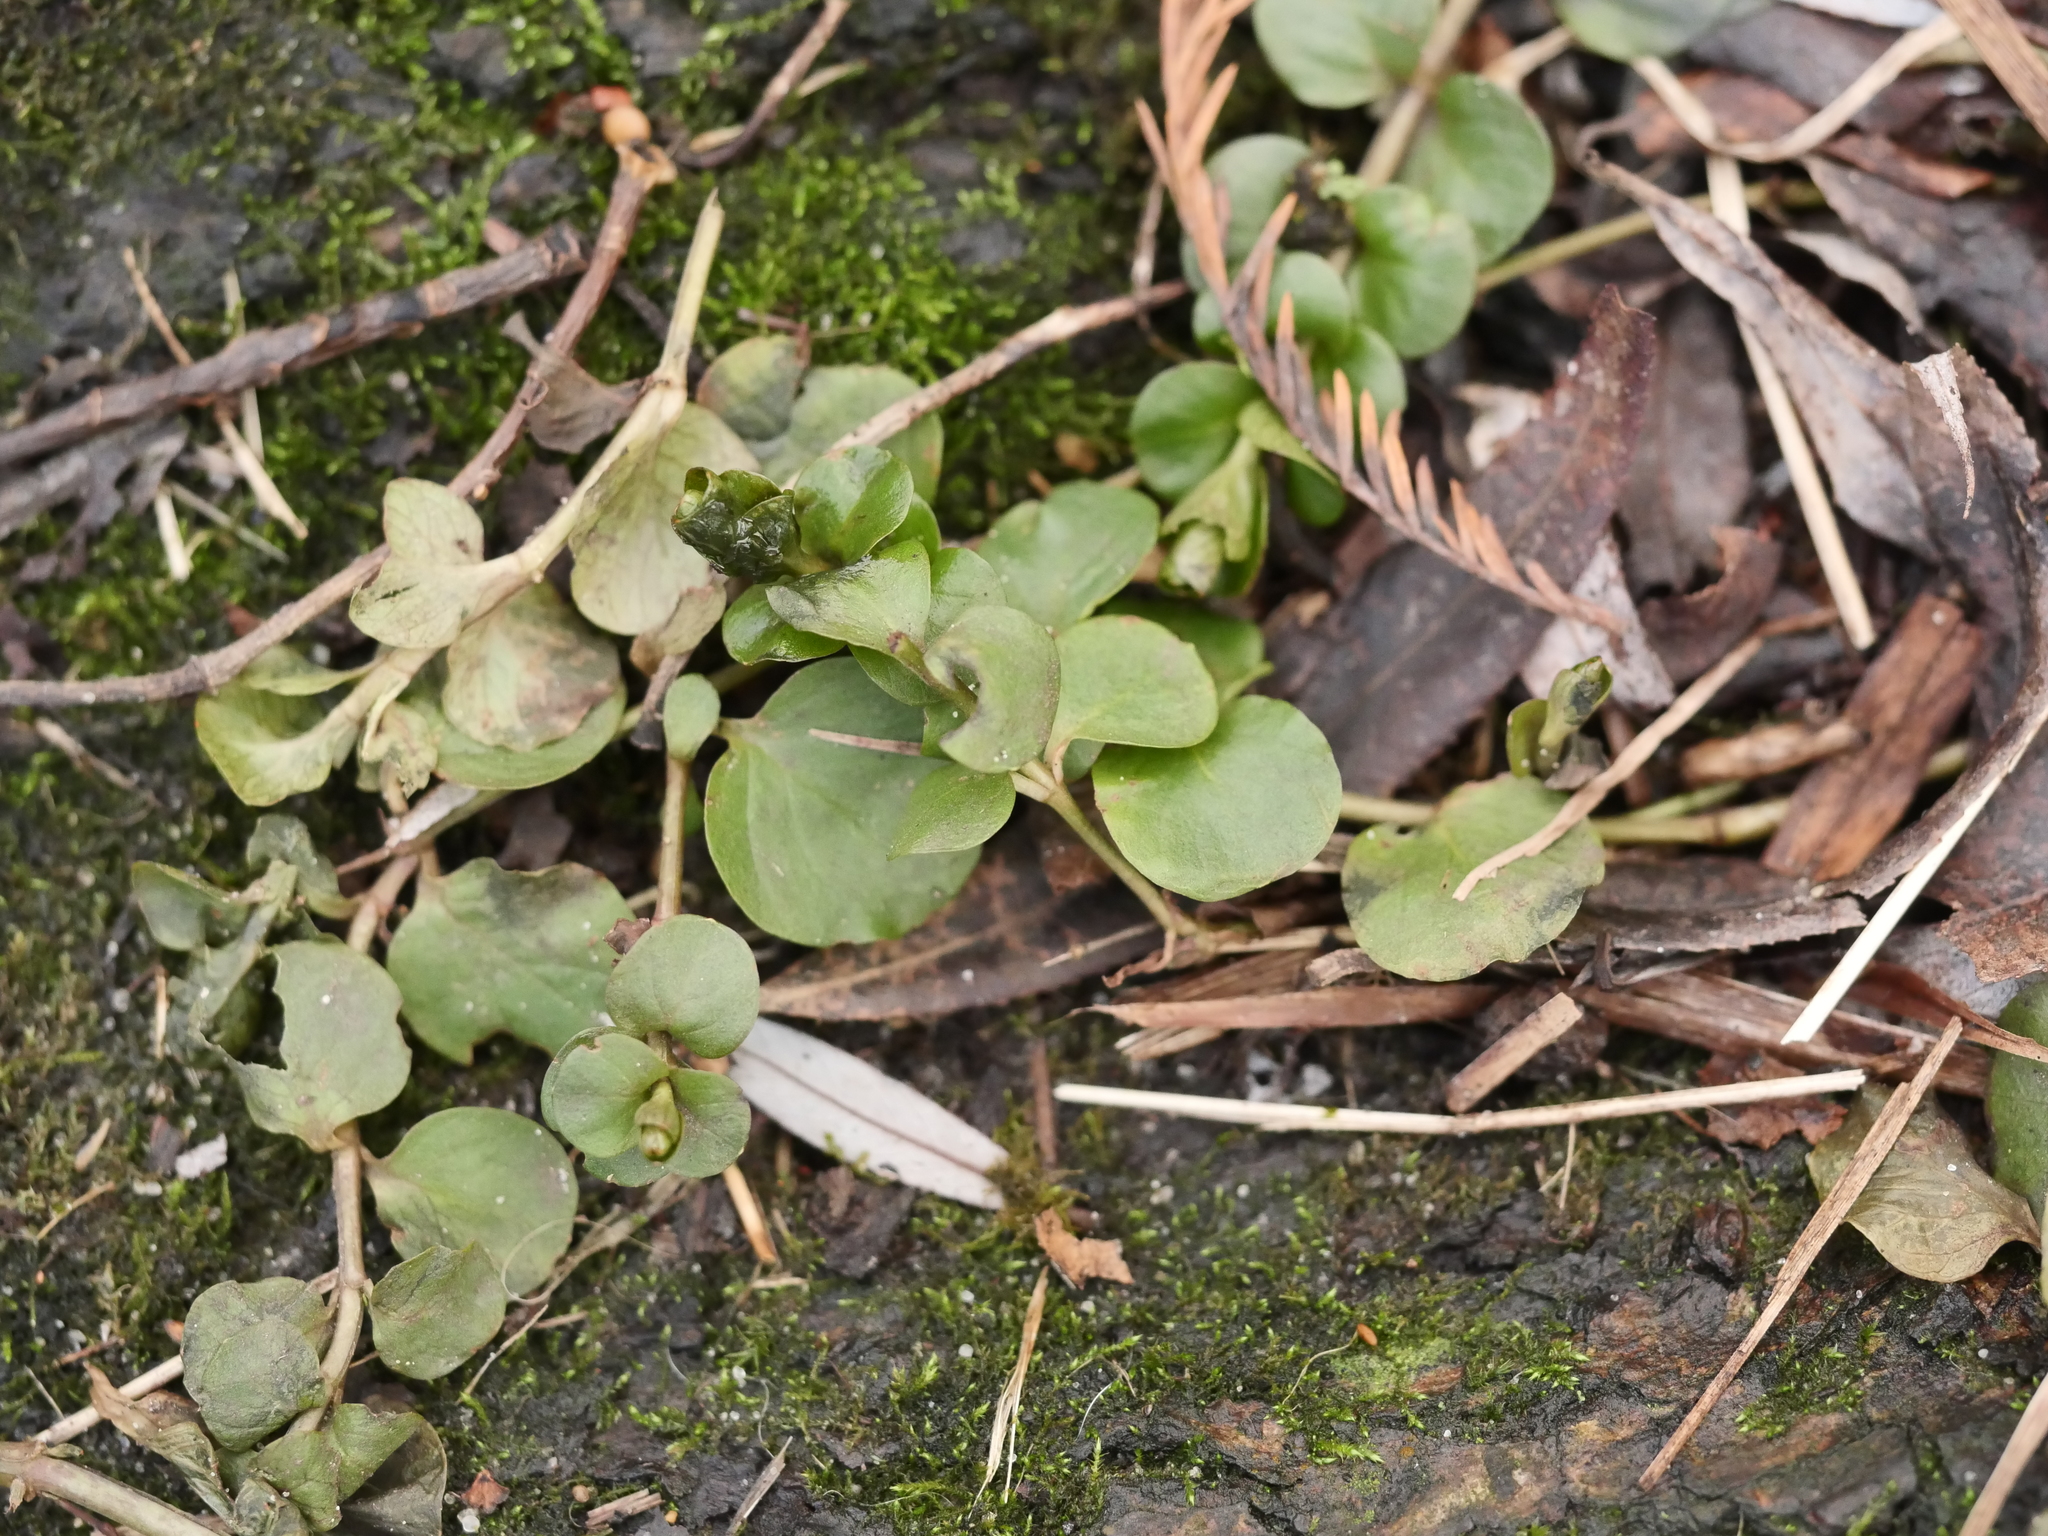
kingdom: Plantae
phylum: Tracheophyta
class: Magnoliopsida
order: Ericales
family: Primulaceae
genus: Lysimachia
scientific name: Lysimachia nummularia
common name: Moneywort
